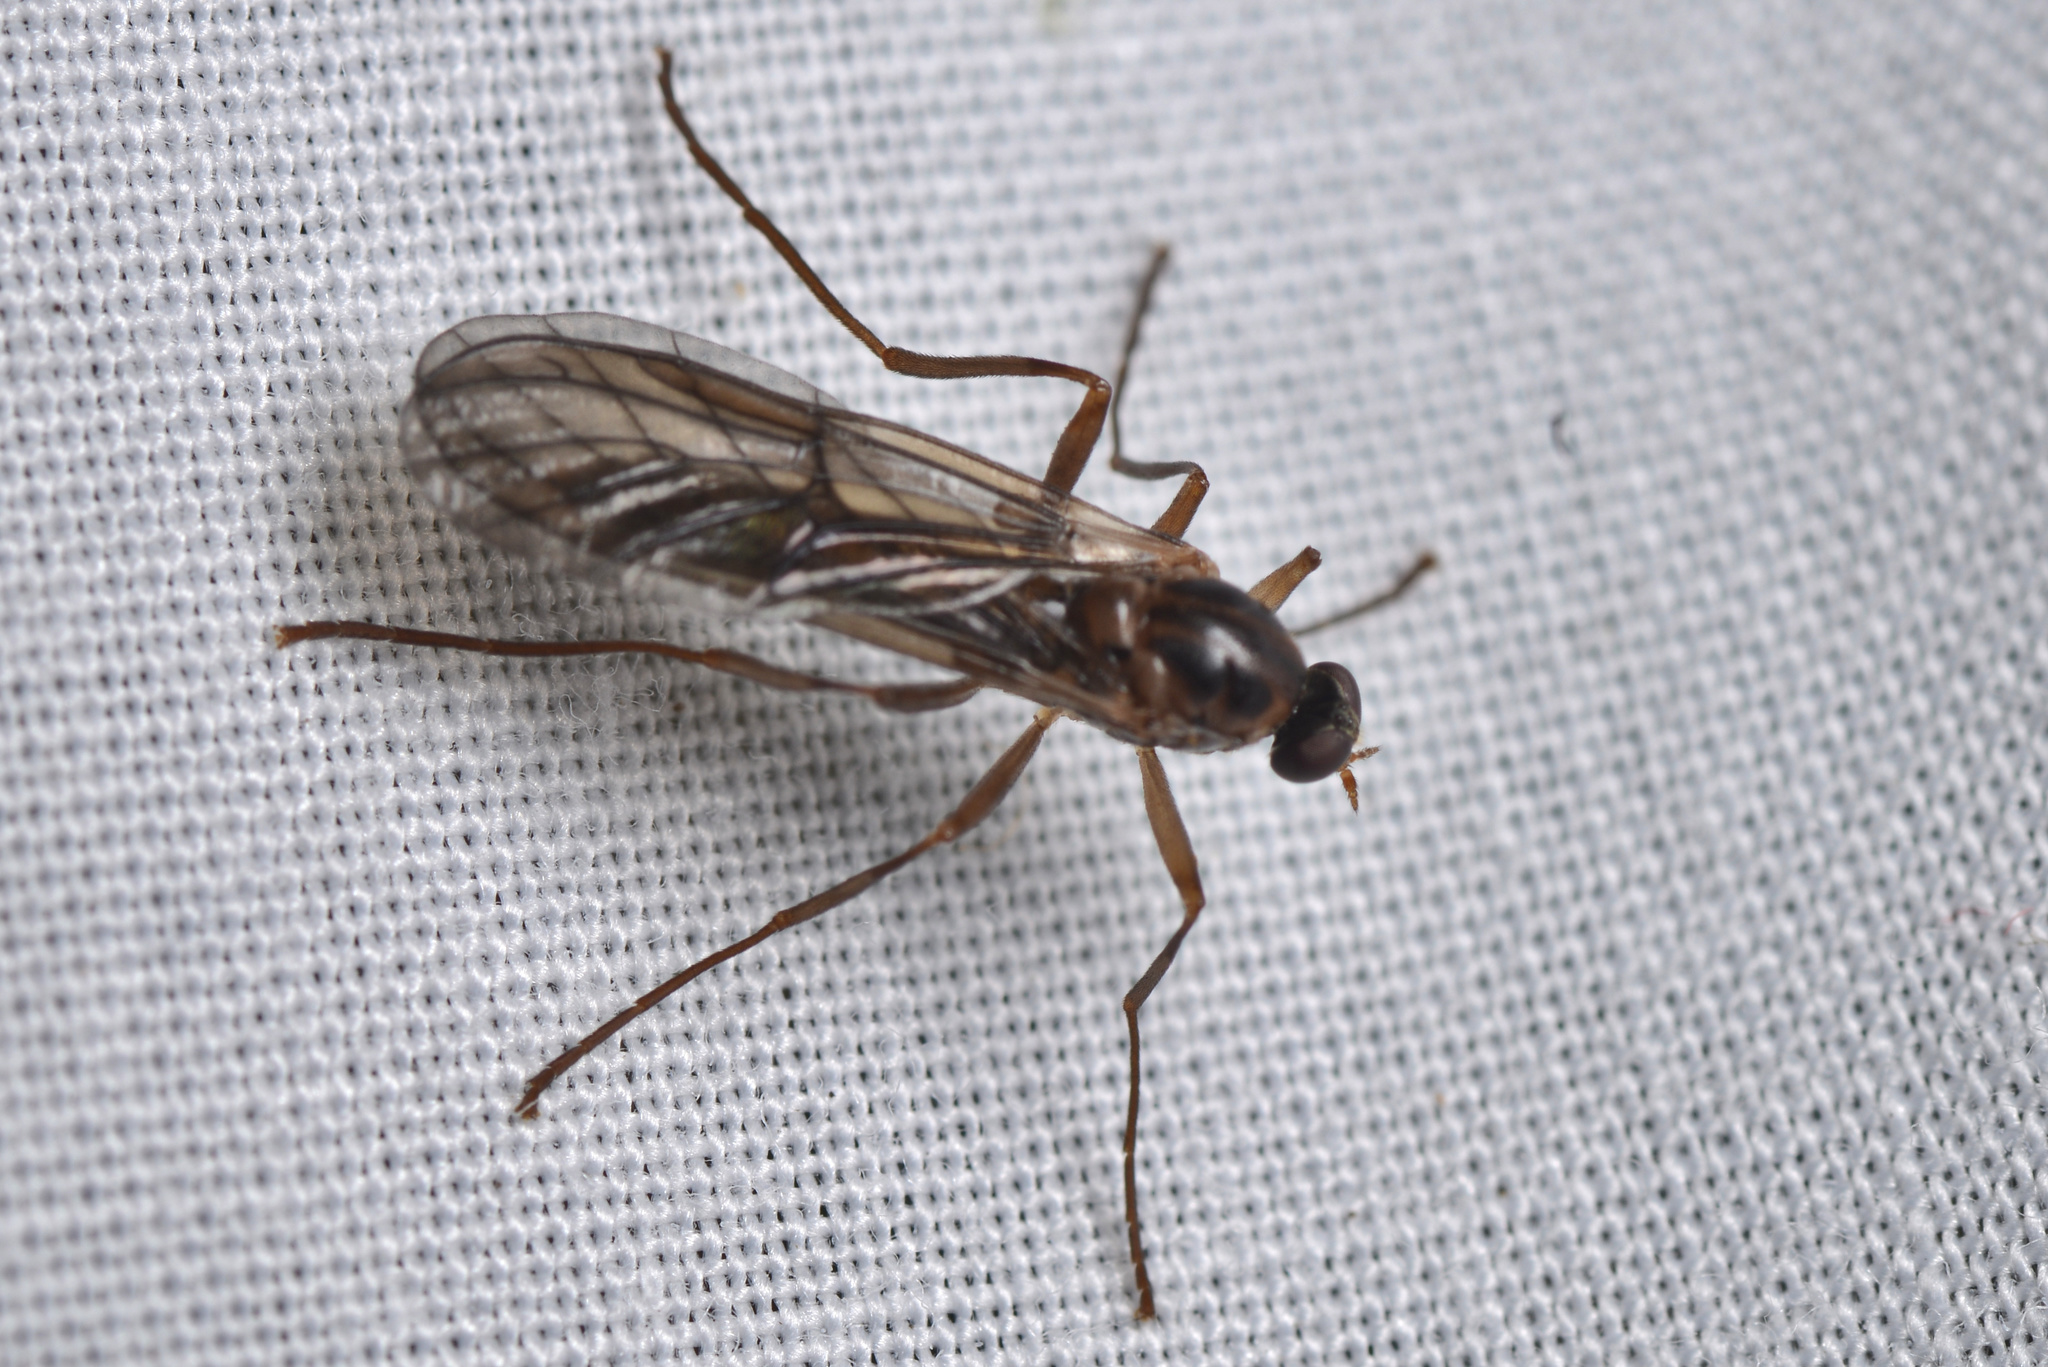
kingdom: Animalia
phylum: Arthropoda
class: Insecta
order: Diptera
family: Stratiomyidae
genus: Boreoides
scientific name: Boreoides tasmaniensis
